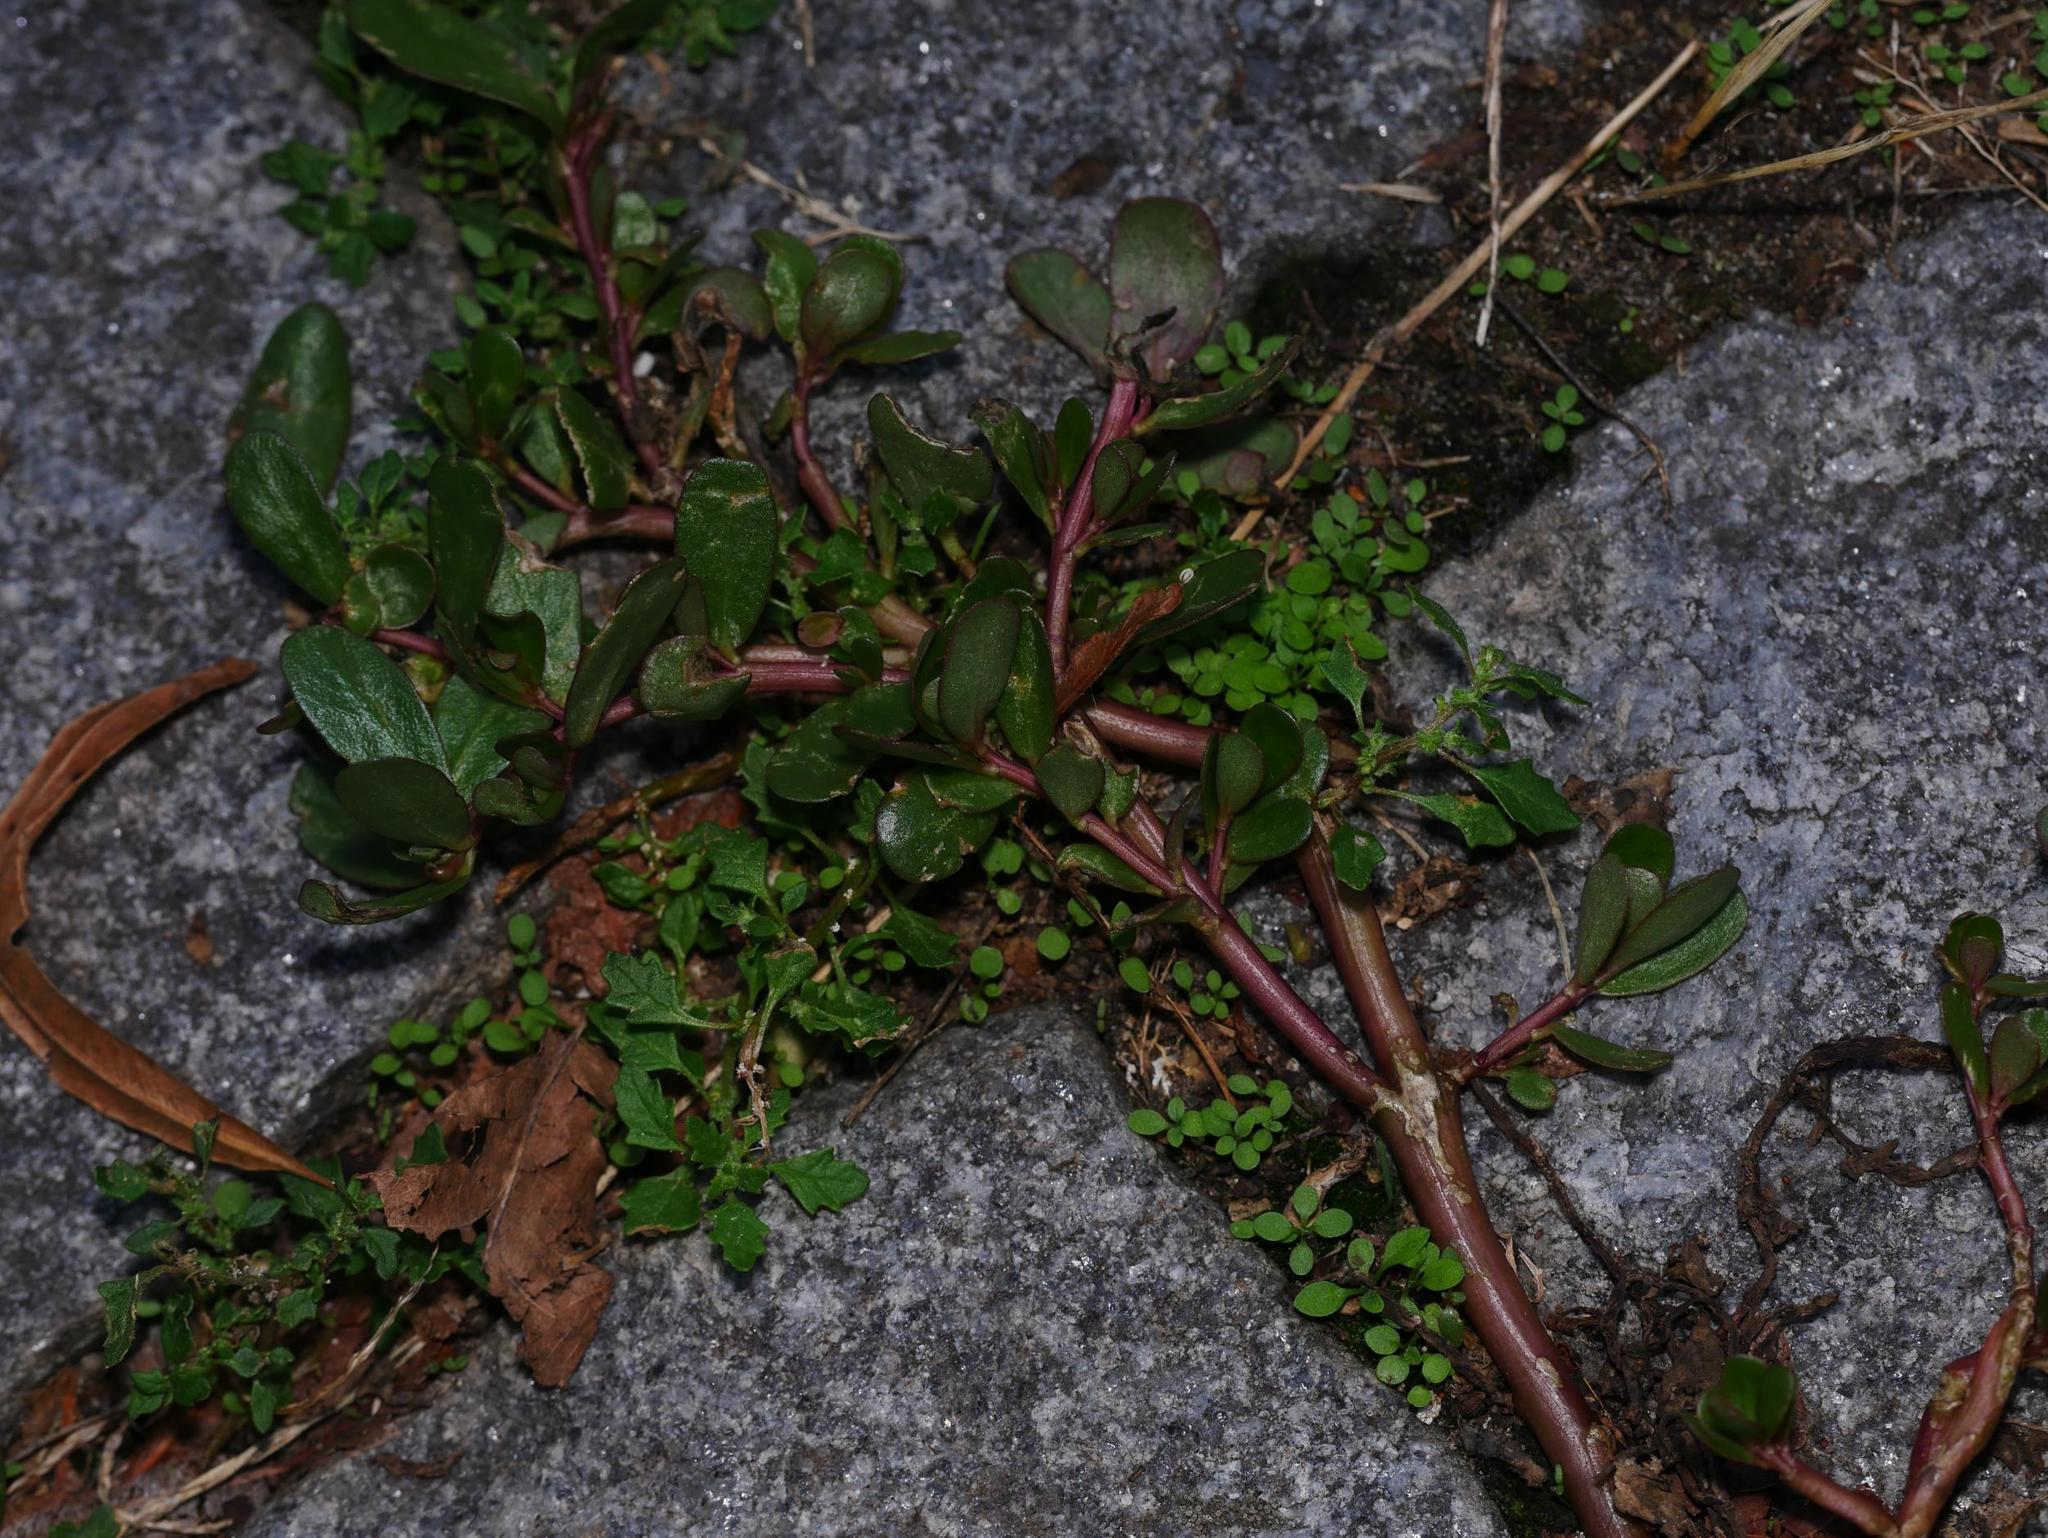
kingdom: Plantae
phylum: Tracheophyta
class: Magnoliopsida
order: Caryophyllales
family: Portulacaceae
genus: Portulaca
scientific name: Portulaca oleracea
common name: Common purslane
